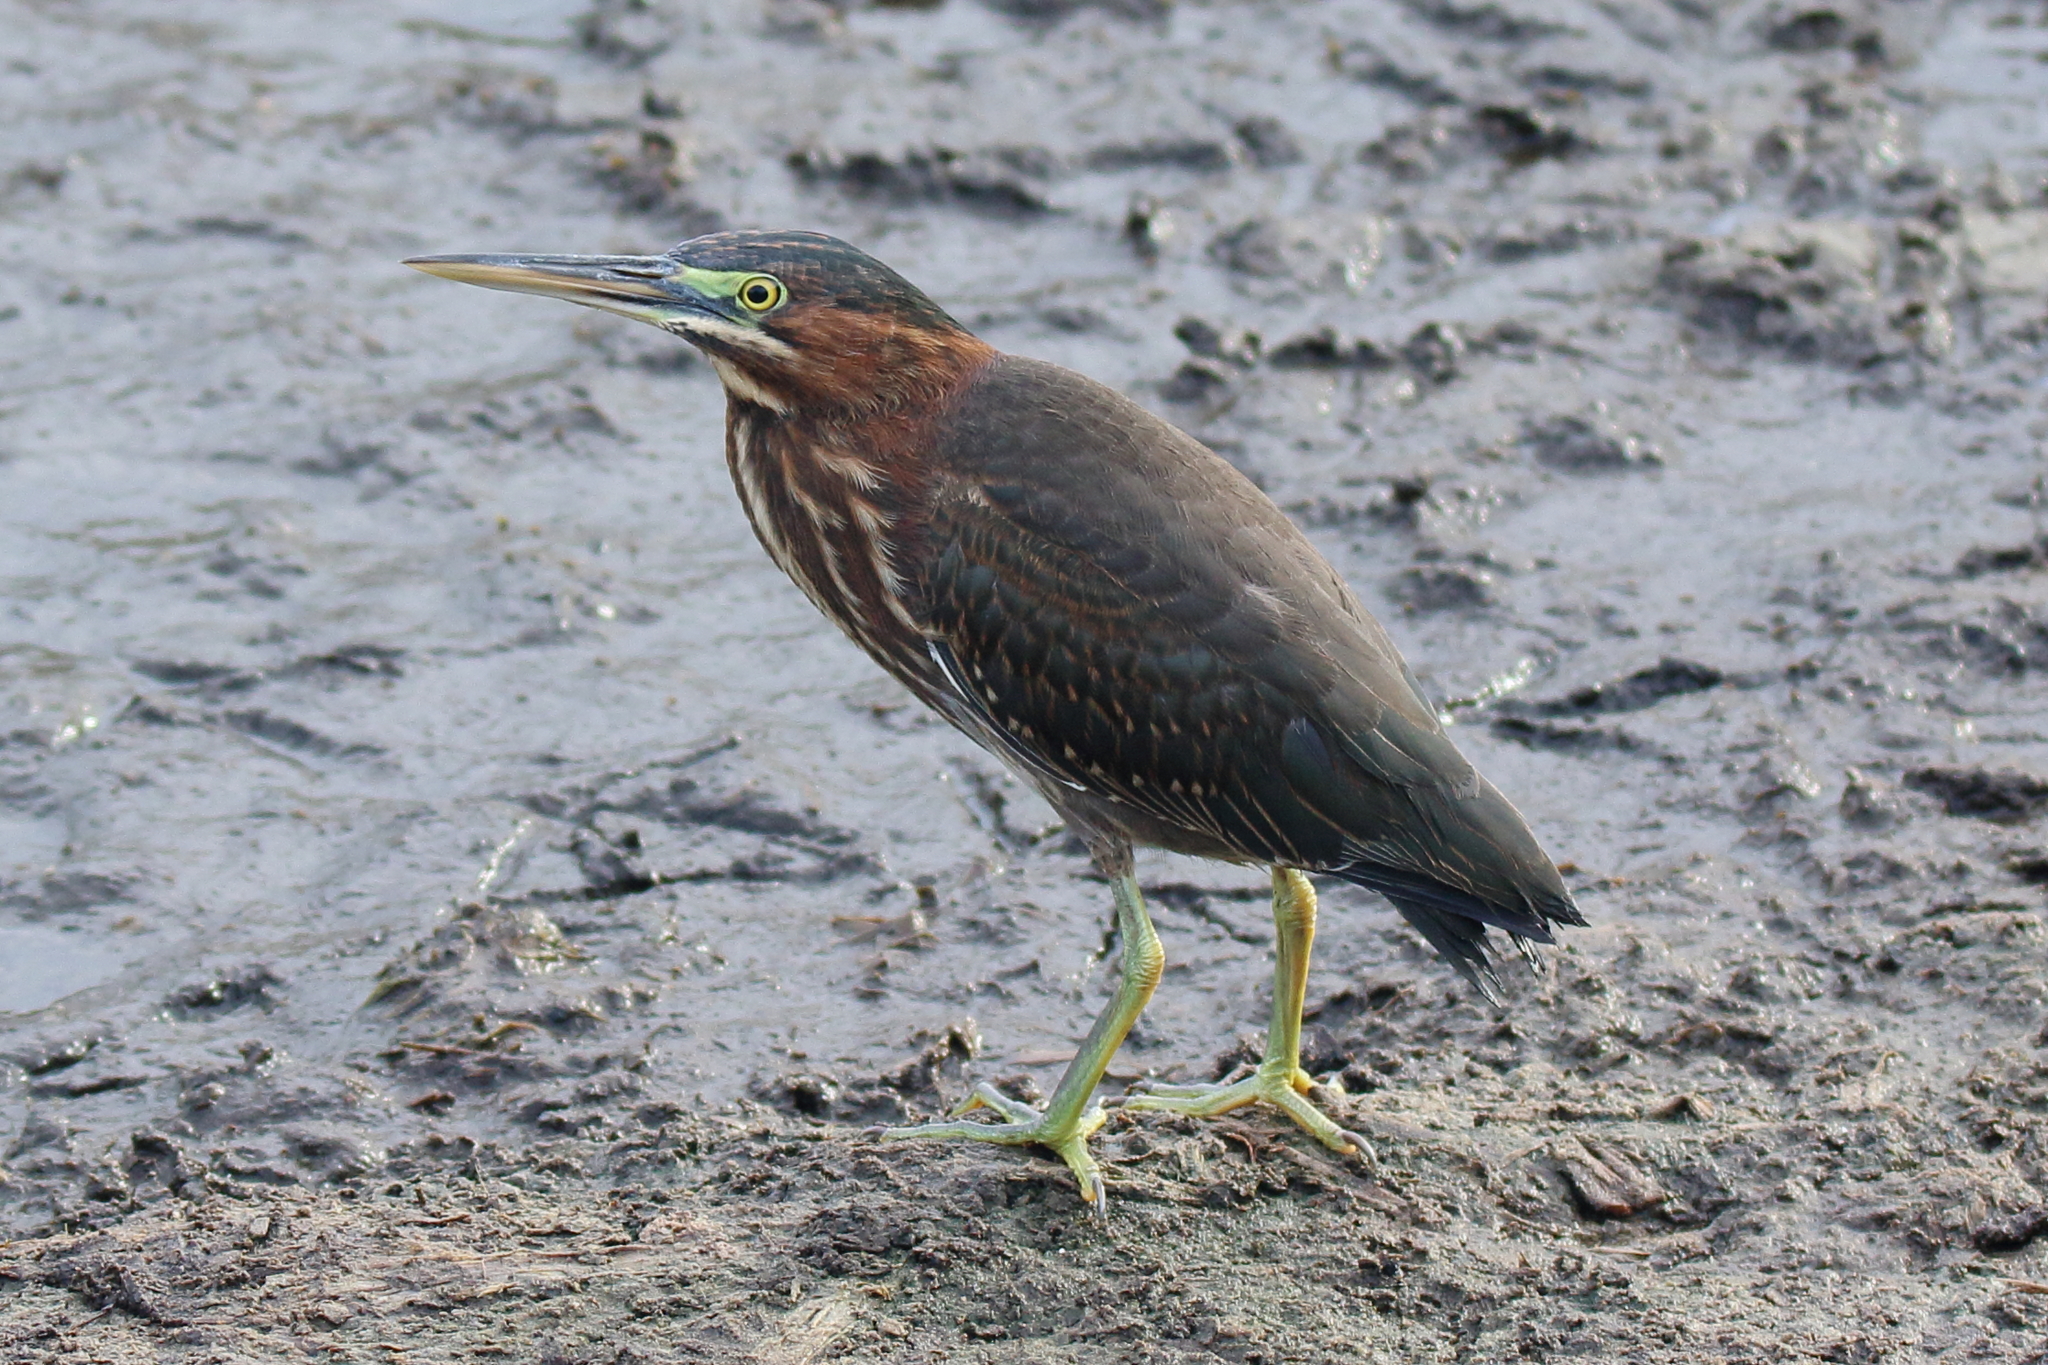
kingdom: Animalia
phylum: Chordata
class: Aves
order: Pelecaniformes
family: Ardeidae
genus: Butorides
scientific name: Butorides virescens
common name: Green heron
